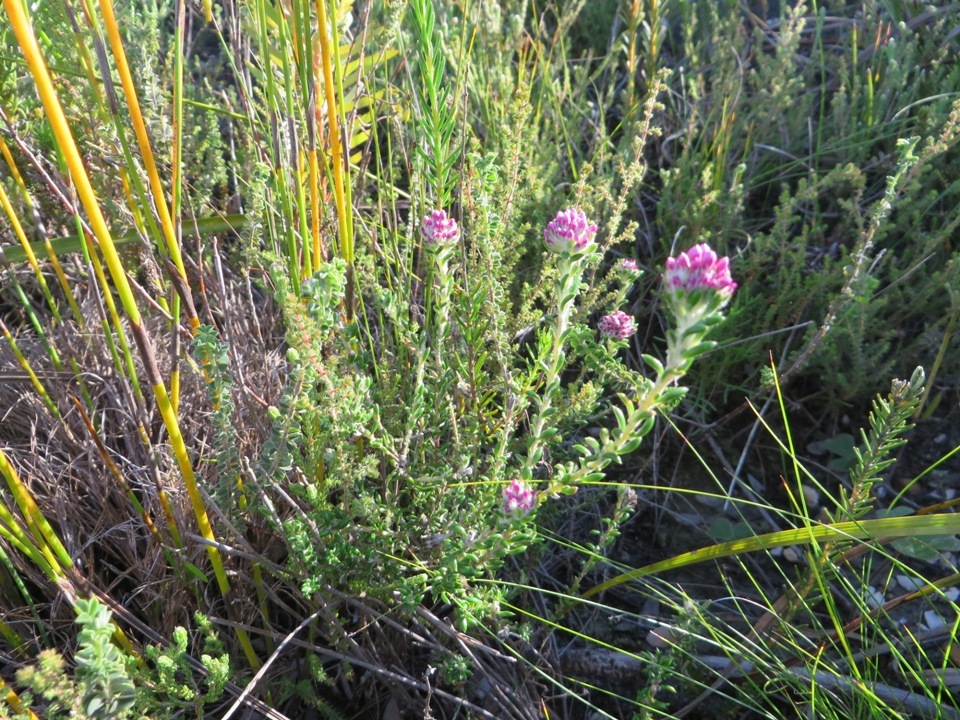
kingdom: Plantae
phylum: Tracheophyta
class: Magnoliopsida
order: Asterales
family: Asteraceae
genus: Metalasia
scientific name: Metalasia cymbifolia
